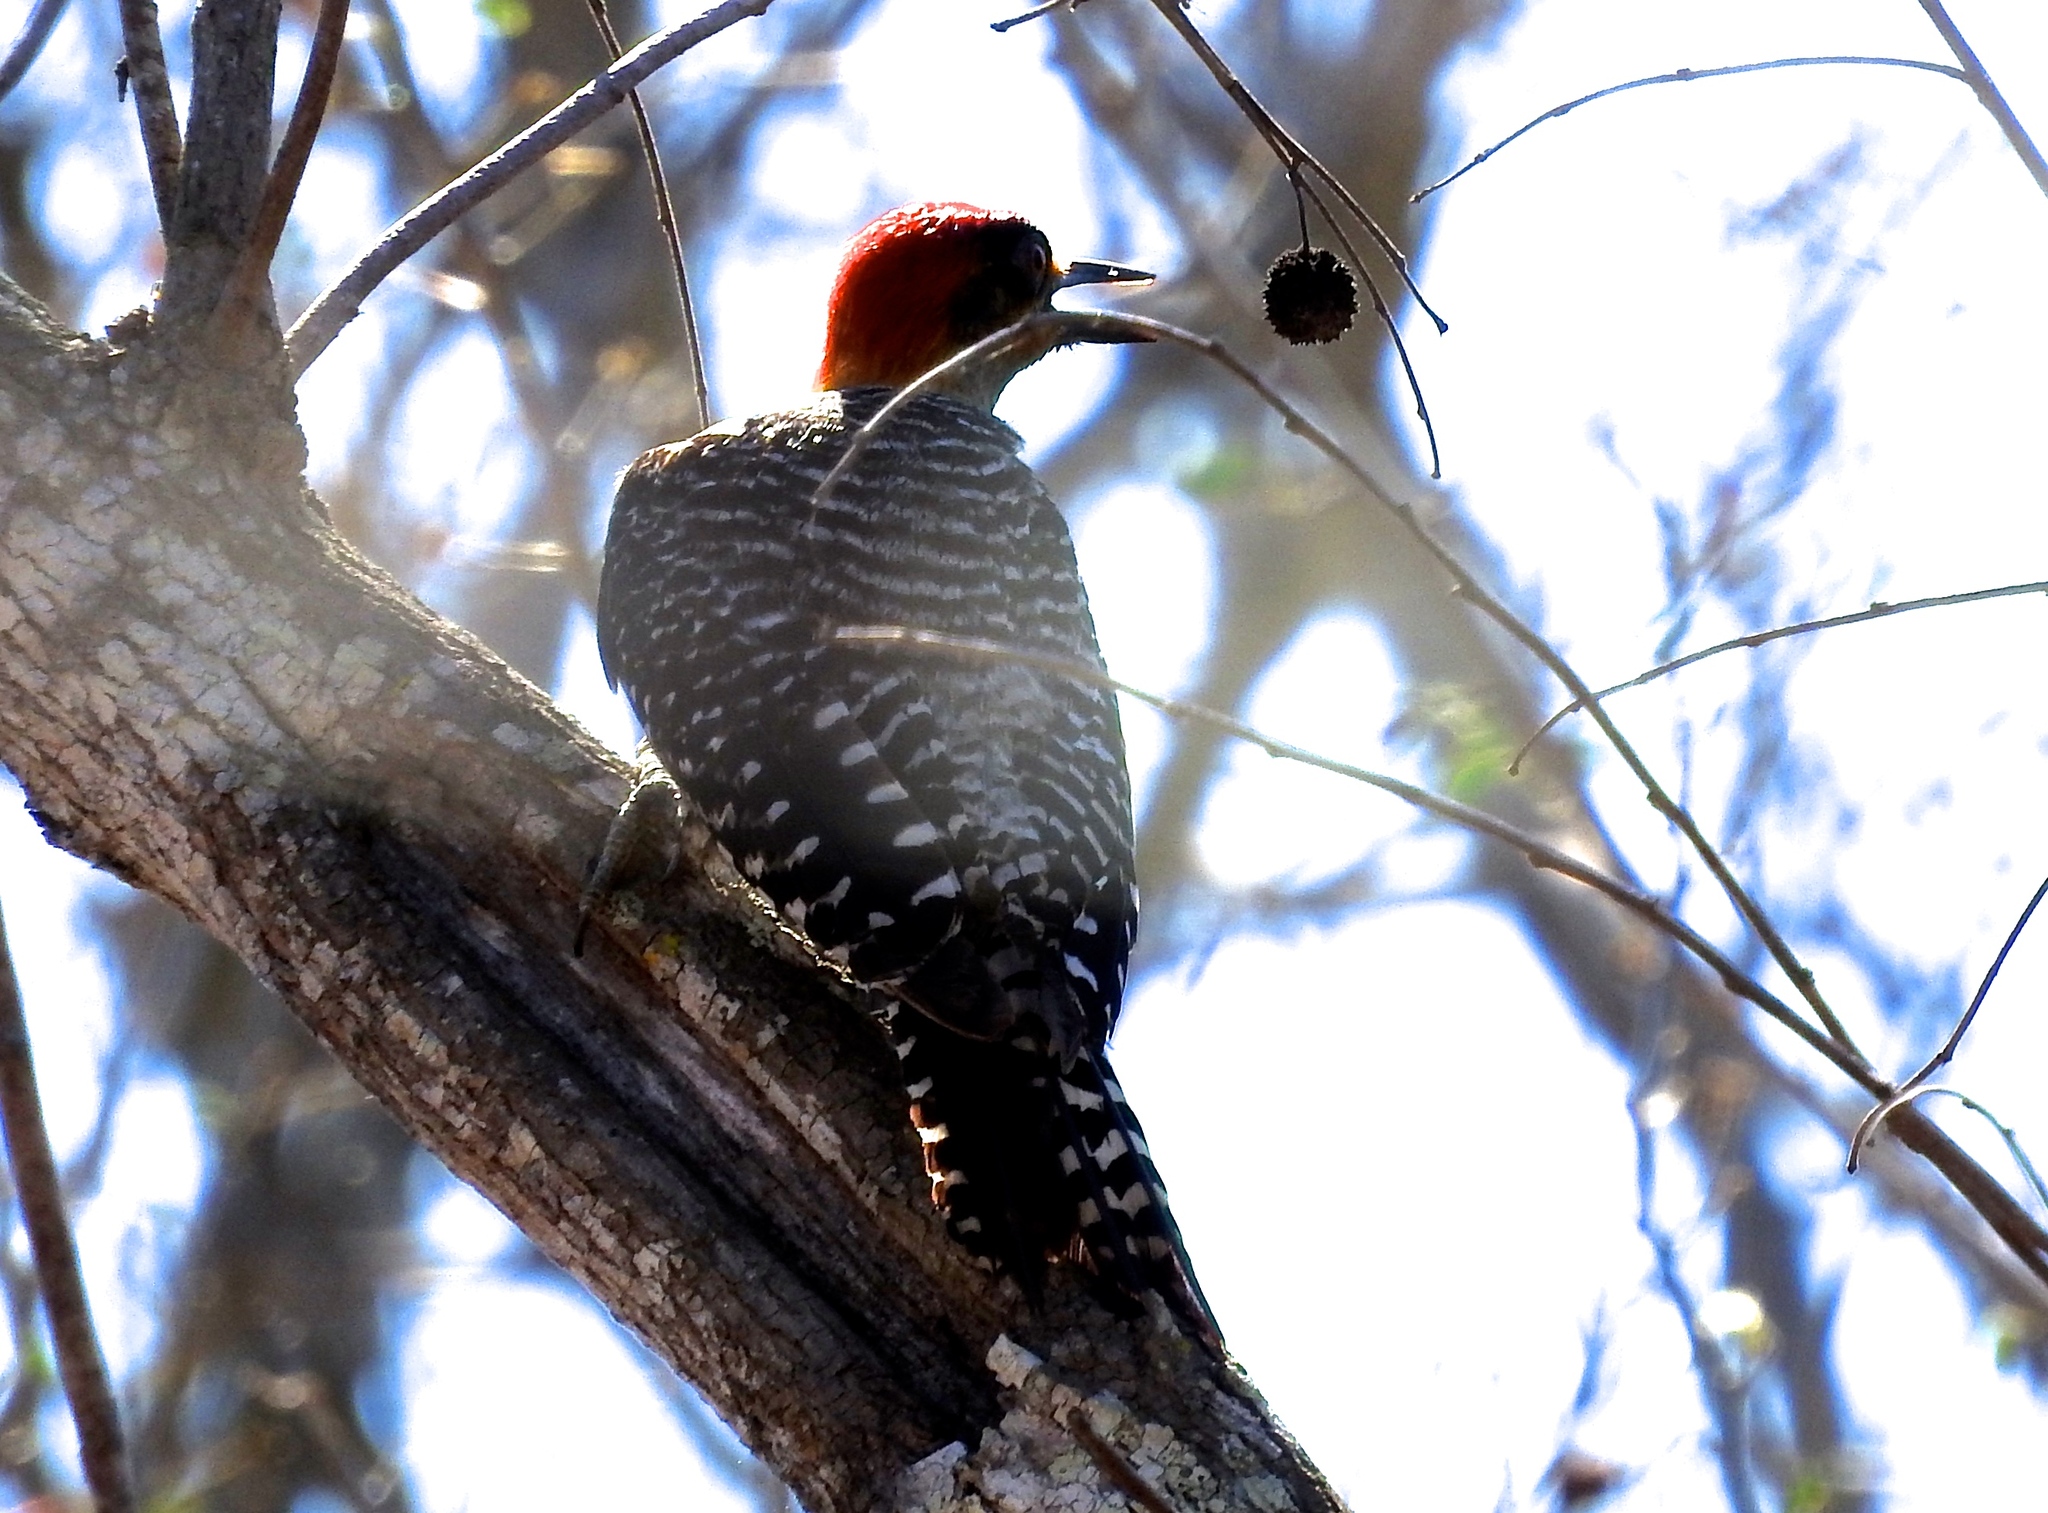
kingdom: Animalia
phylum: Chordata
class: Aves
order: Piciformes
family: Picidae
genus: Melanerpes
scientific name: Melanerpes chrysogenys
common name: Golden-cheeked woodpecker
